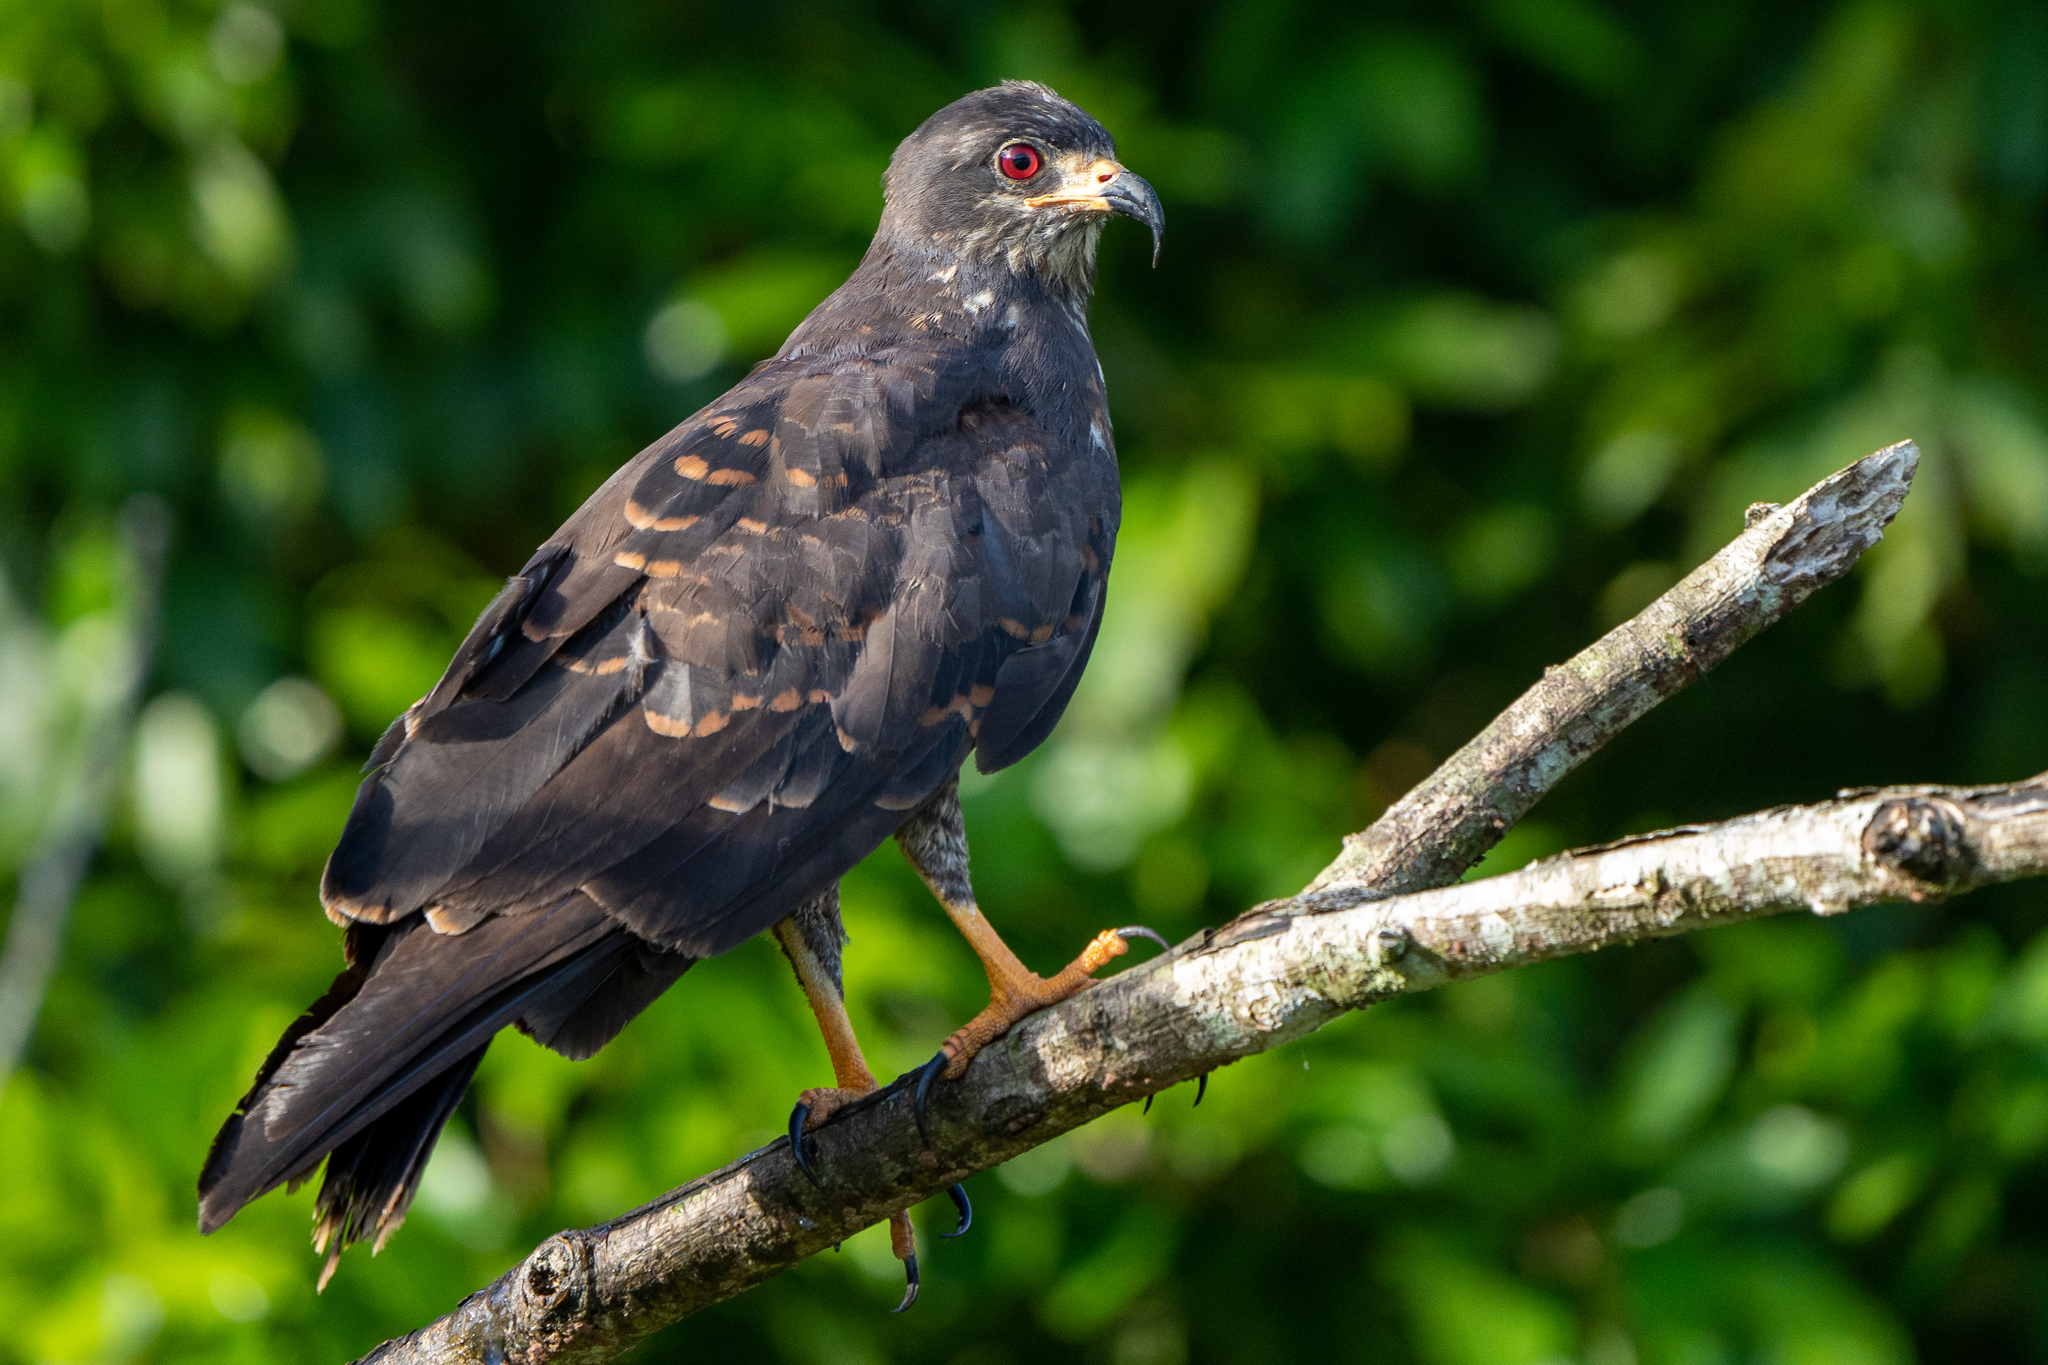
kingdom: Animalia
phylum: Chordata
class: Aves
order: Accipitriformes
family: Accipitridae
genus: Rostrhamus
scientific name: Rostrhamus sociabilis
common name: Snail kite
